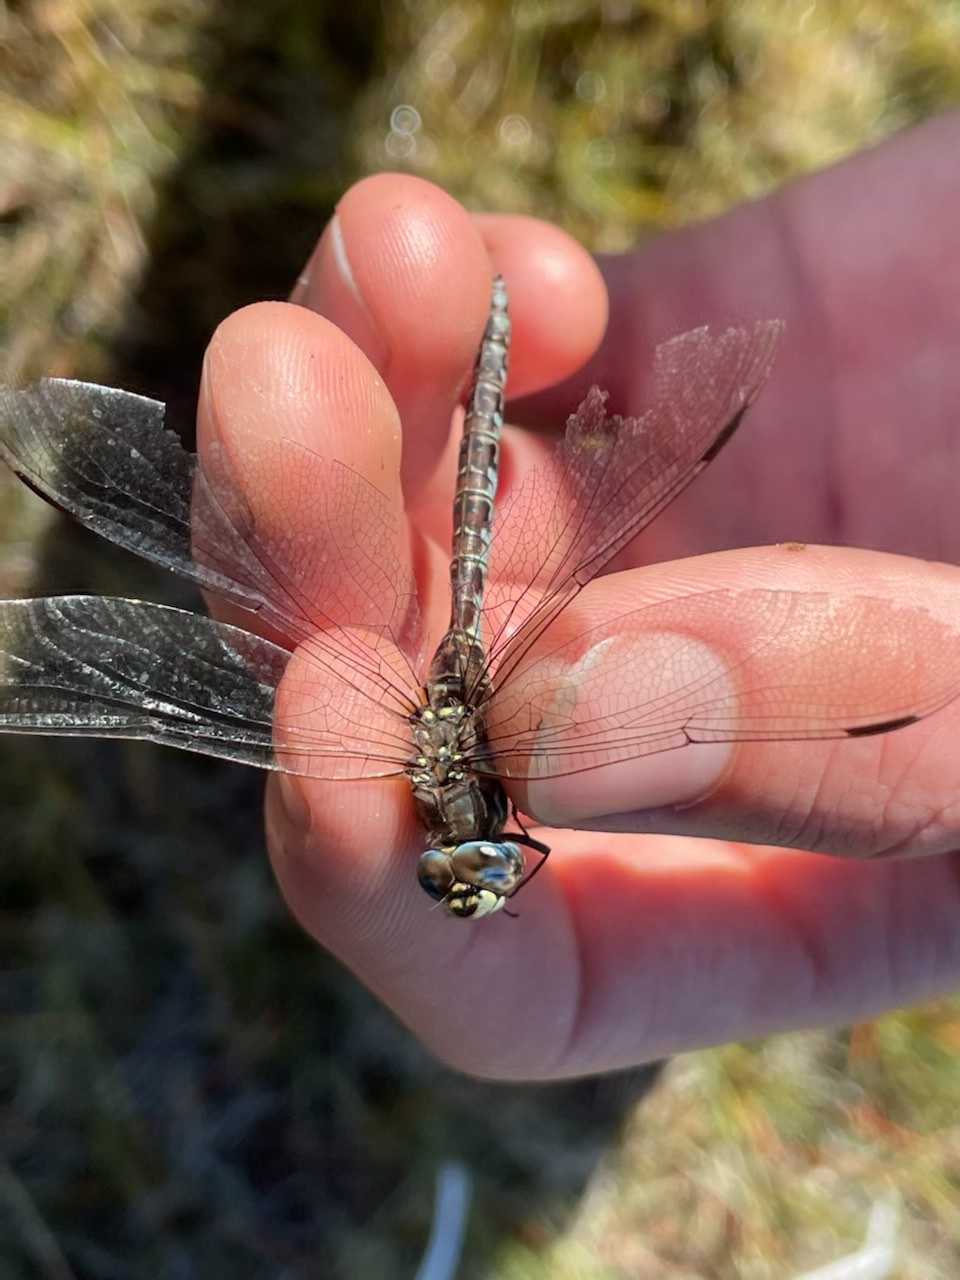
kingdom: Animalia
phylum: Arthropoda
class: Insecta
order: Odonata
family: Aeshnidae
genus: Aeshna
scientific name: Aeshna sitchensis
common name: Zigzag darner
